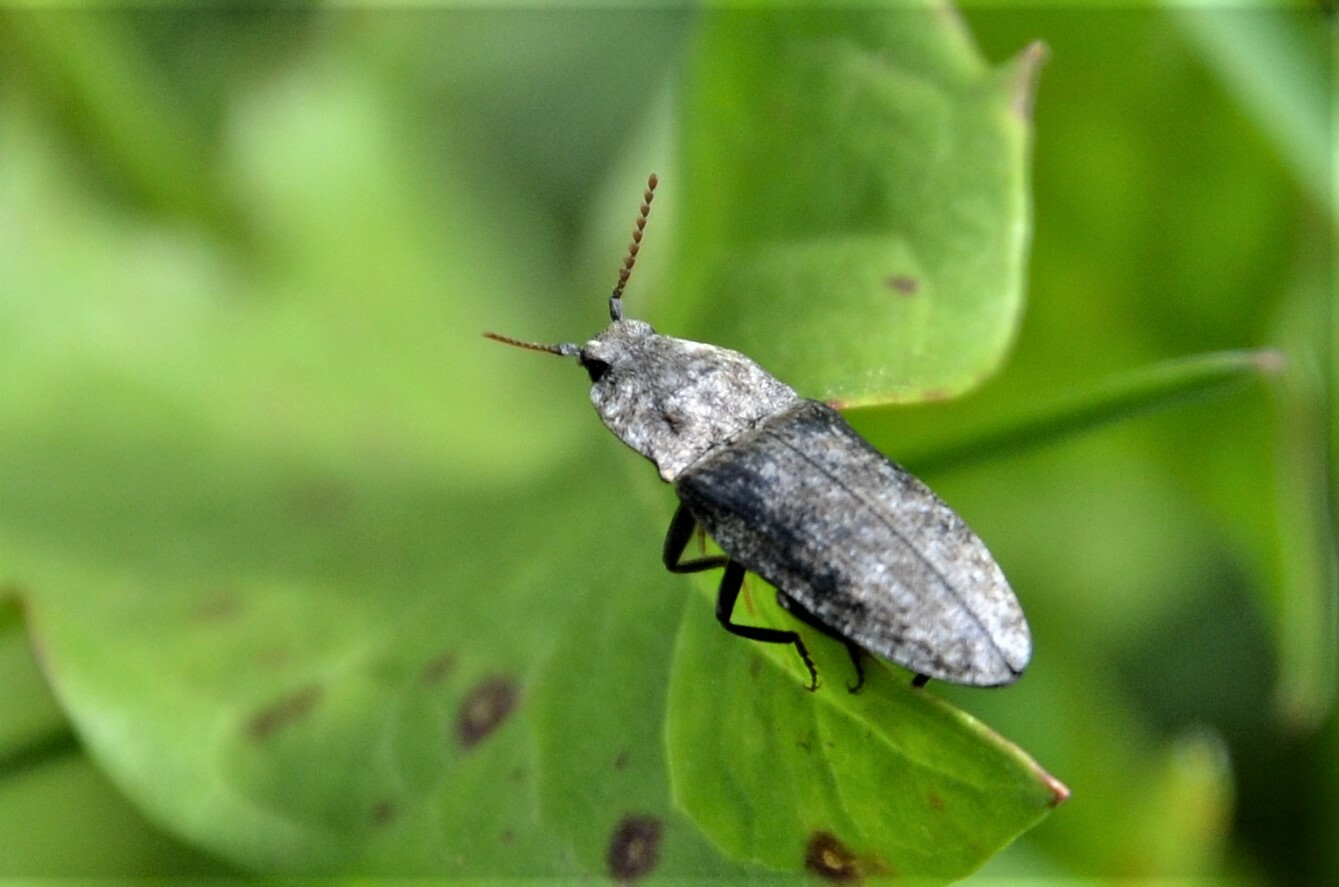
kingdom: Animalia
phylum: Arthropoda
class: Insecta
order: Coleoptera
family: Elateridae
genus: Agrypnus
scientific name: Agrypnus murinus
